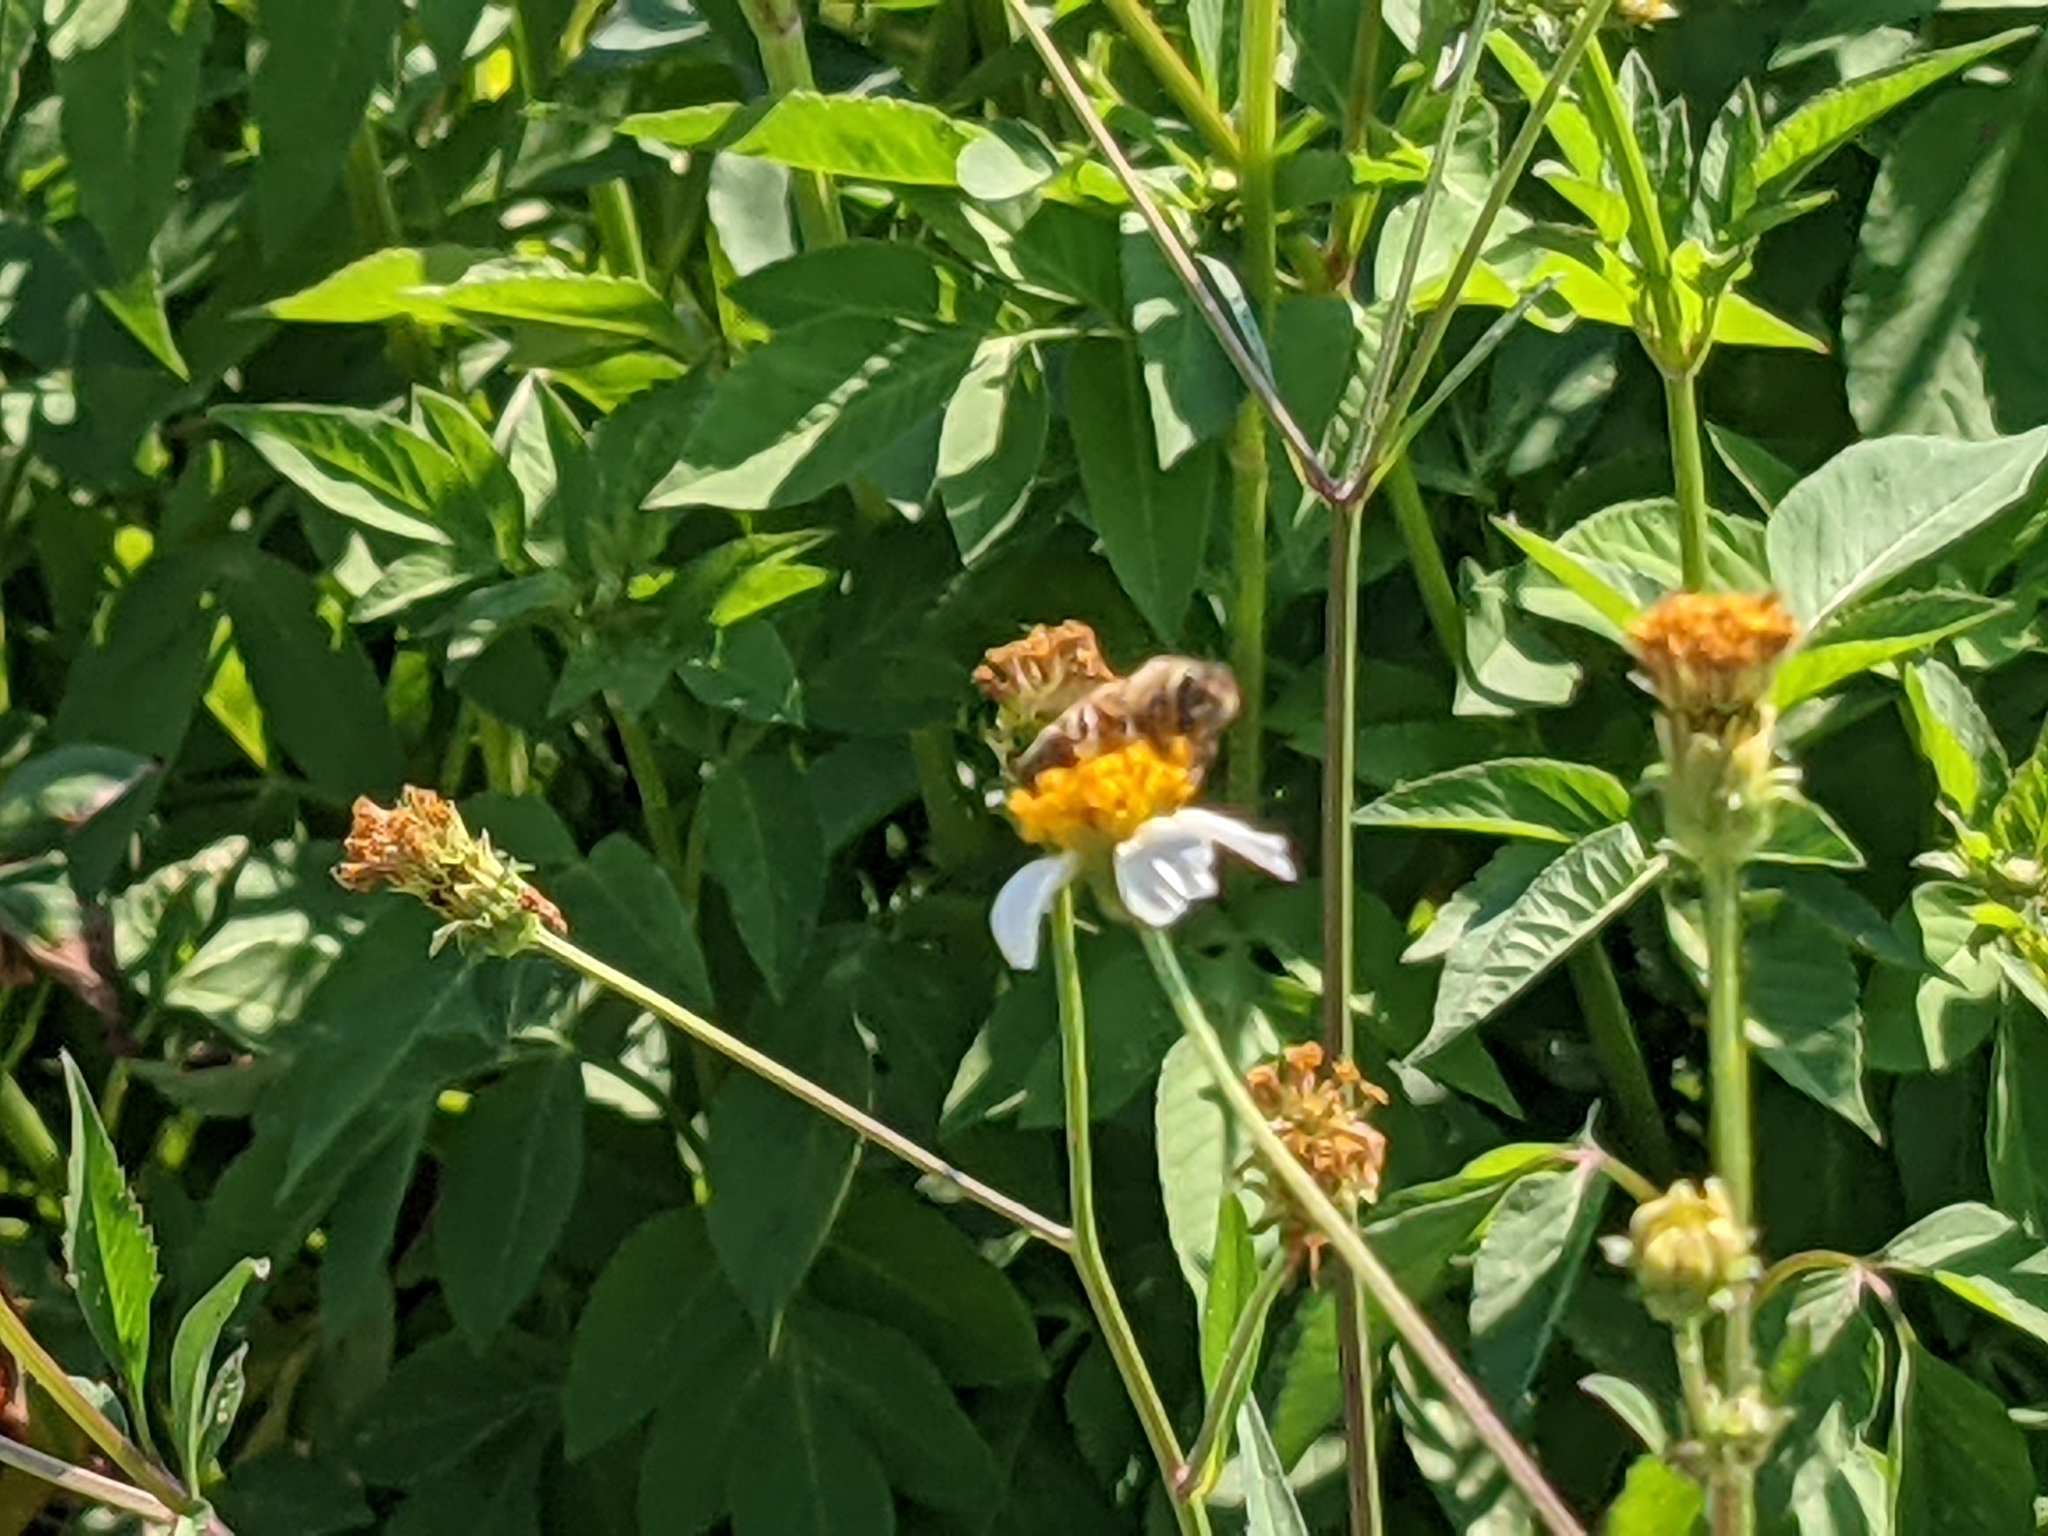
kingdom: Animalia
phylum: Arthropoda
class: Insecta
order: Hymenoptera
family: Apidae
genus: Apis
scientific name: Apis mellifera
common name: Honey bee
